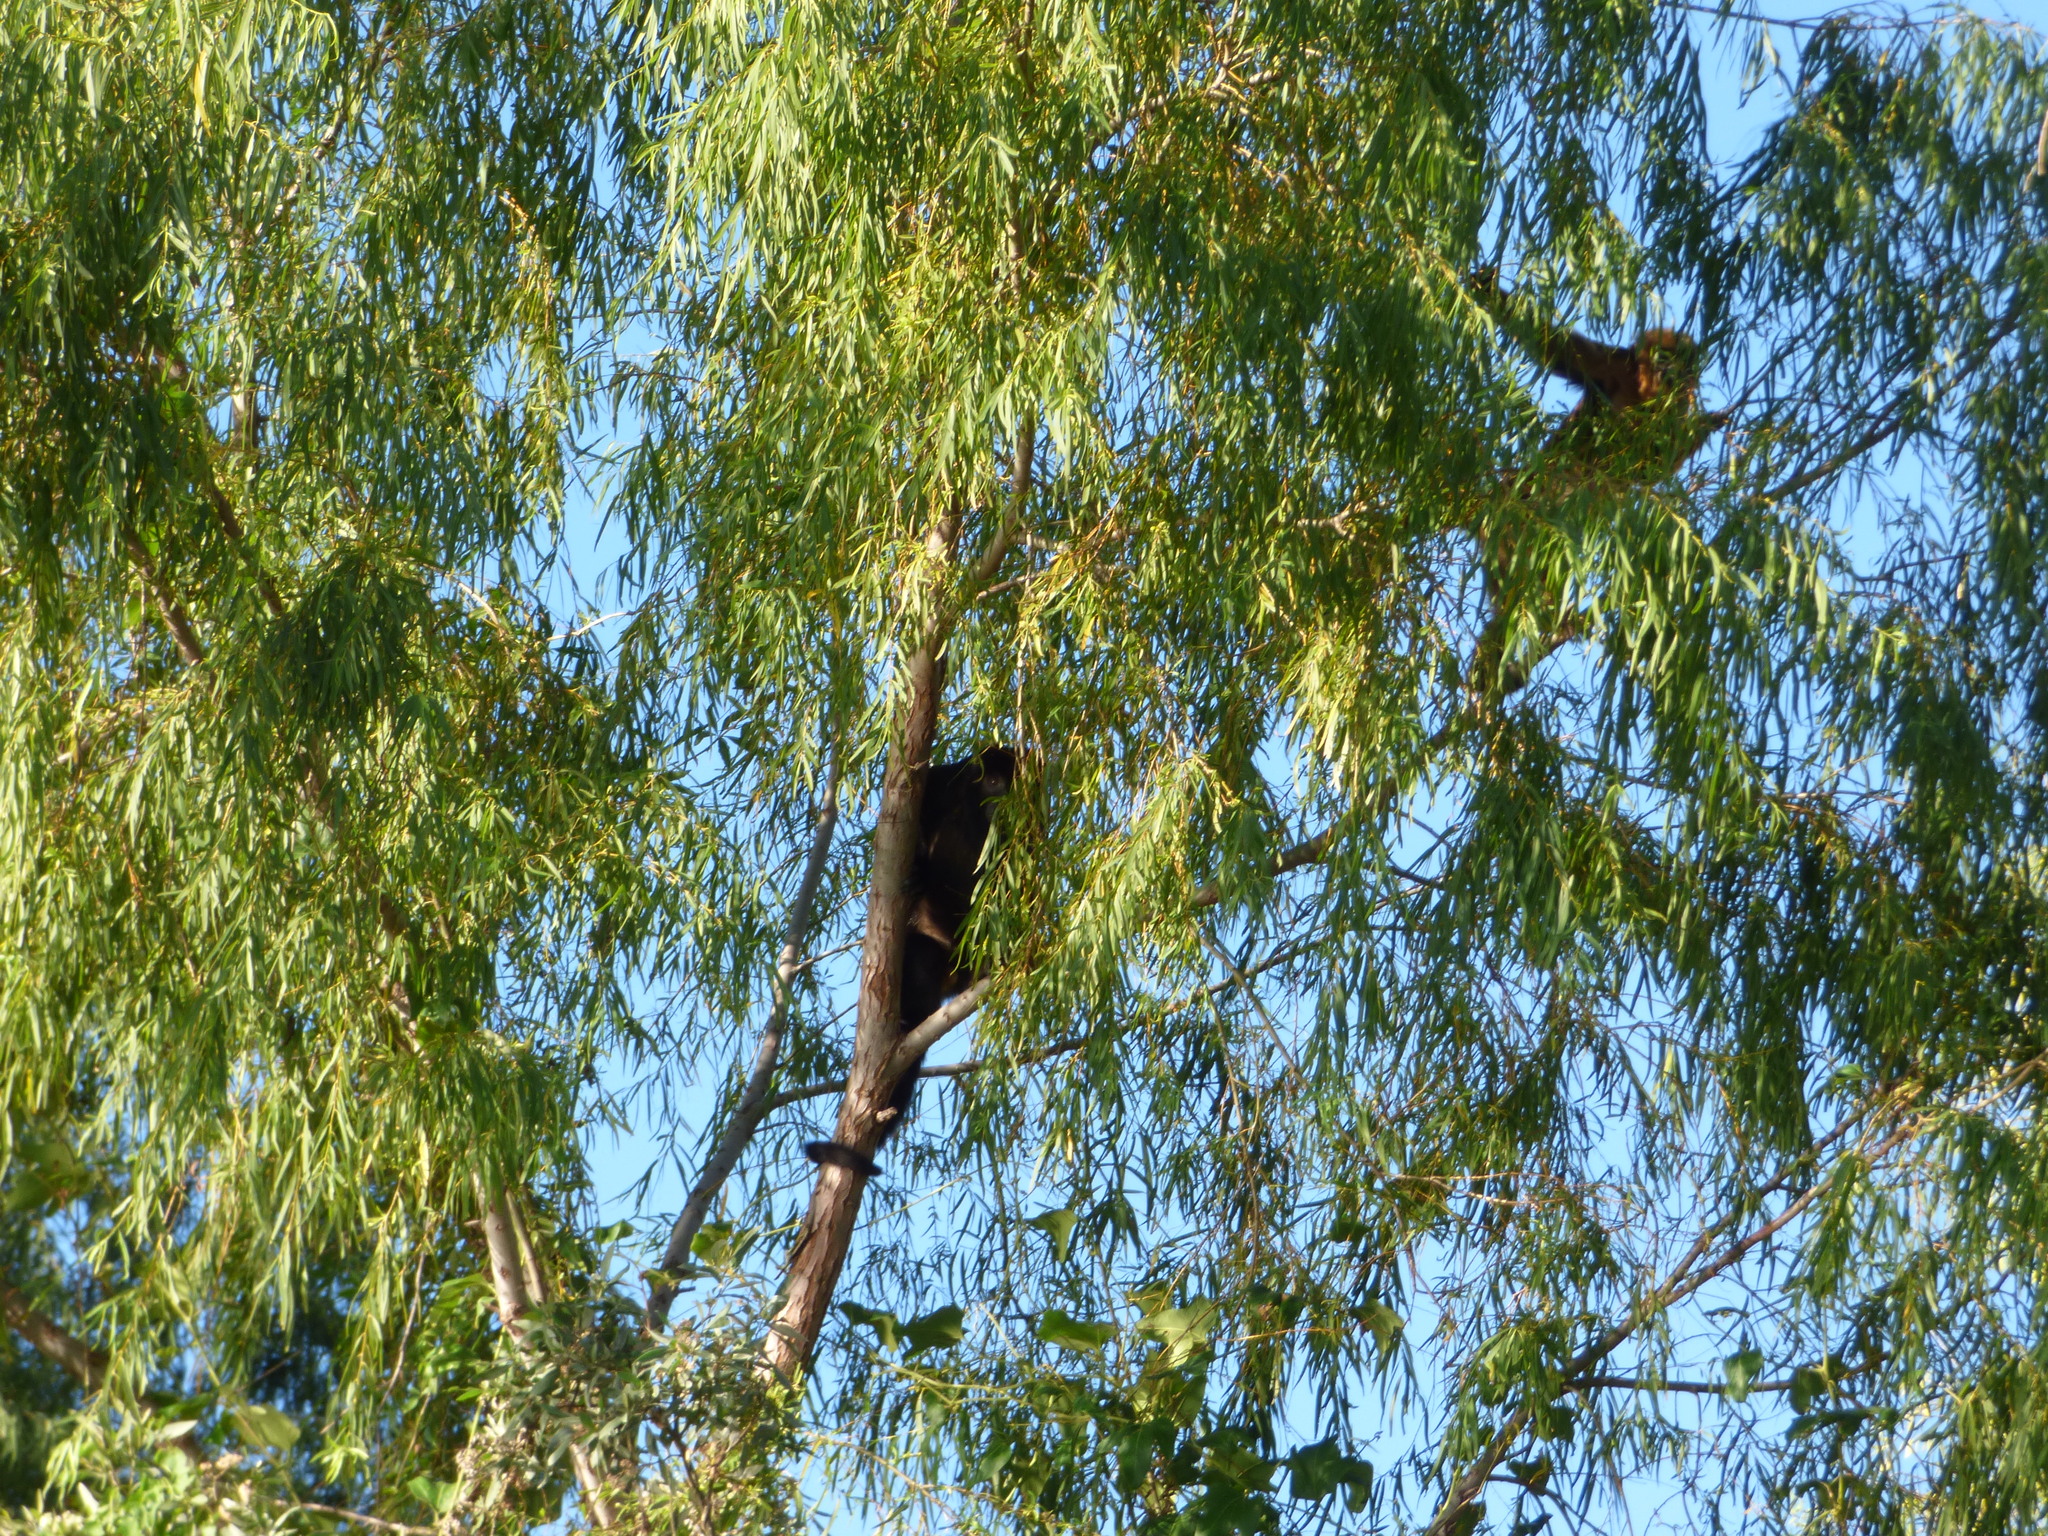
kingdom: Animalia
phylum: Chordata
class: Mammalia
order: Primates
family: Atelidae
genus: Alouatta
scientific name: Alouatta caraya
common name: Black howler
